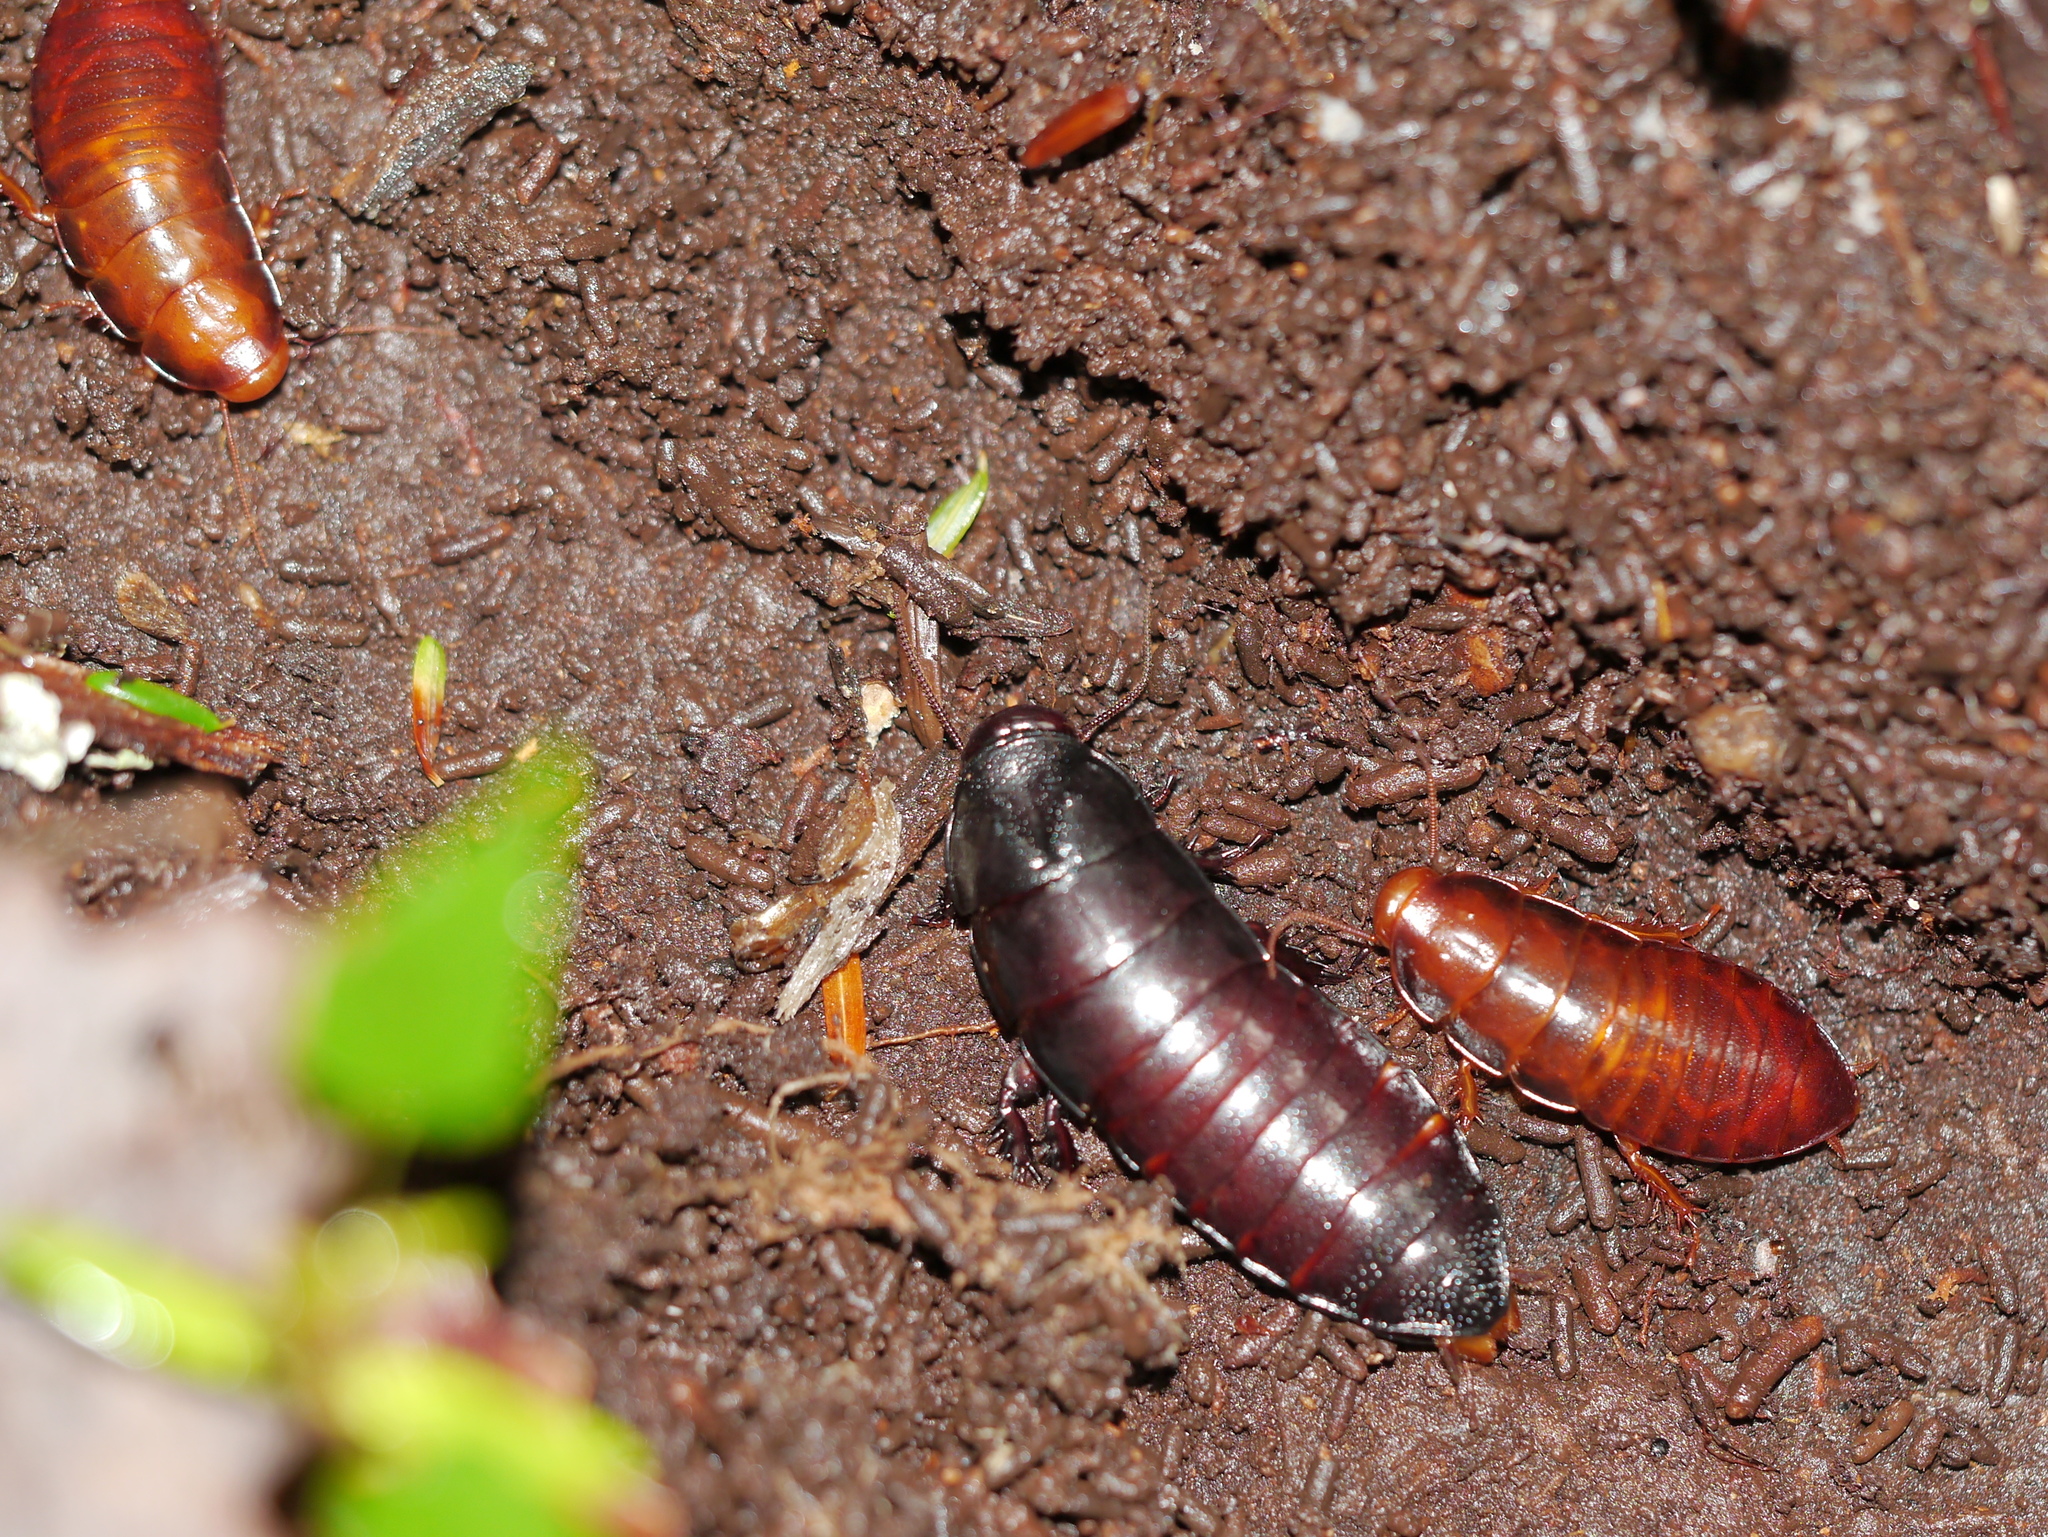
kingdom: Animalia
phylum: Arthropoda
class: Insecta
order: Blattodea
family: Cryptocercidae
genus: Cryptocercus
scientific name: Cryptocercus wrighti
